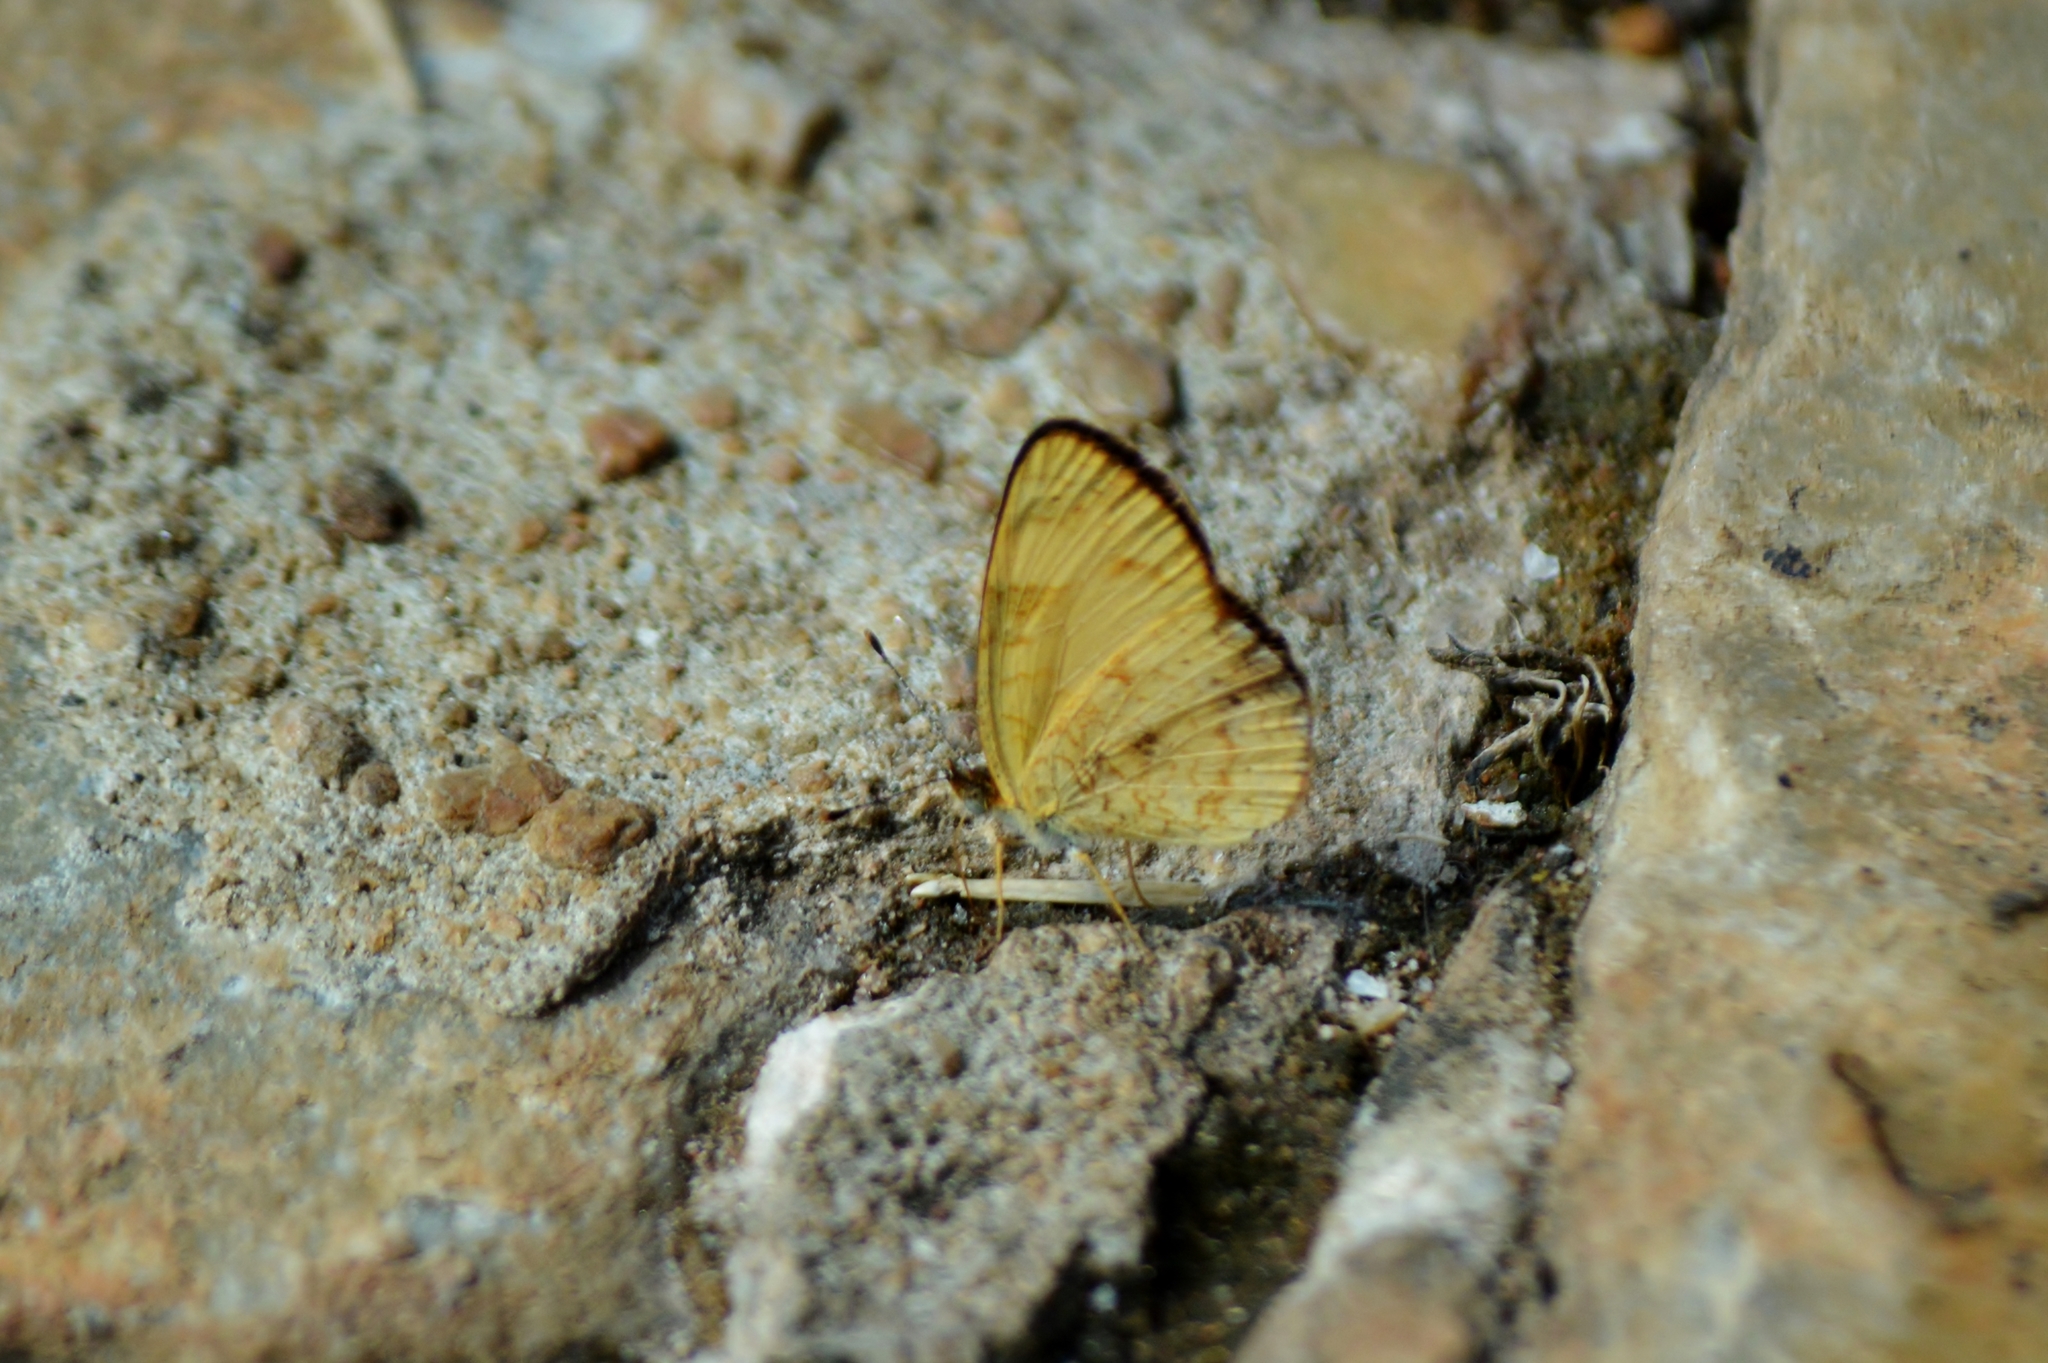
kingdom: Animalia
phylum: Arthropoda
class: Insecta
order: Lepidoptera
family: Nymphalidae
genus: Tegosa
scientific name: Tegosa claudina
